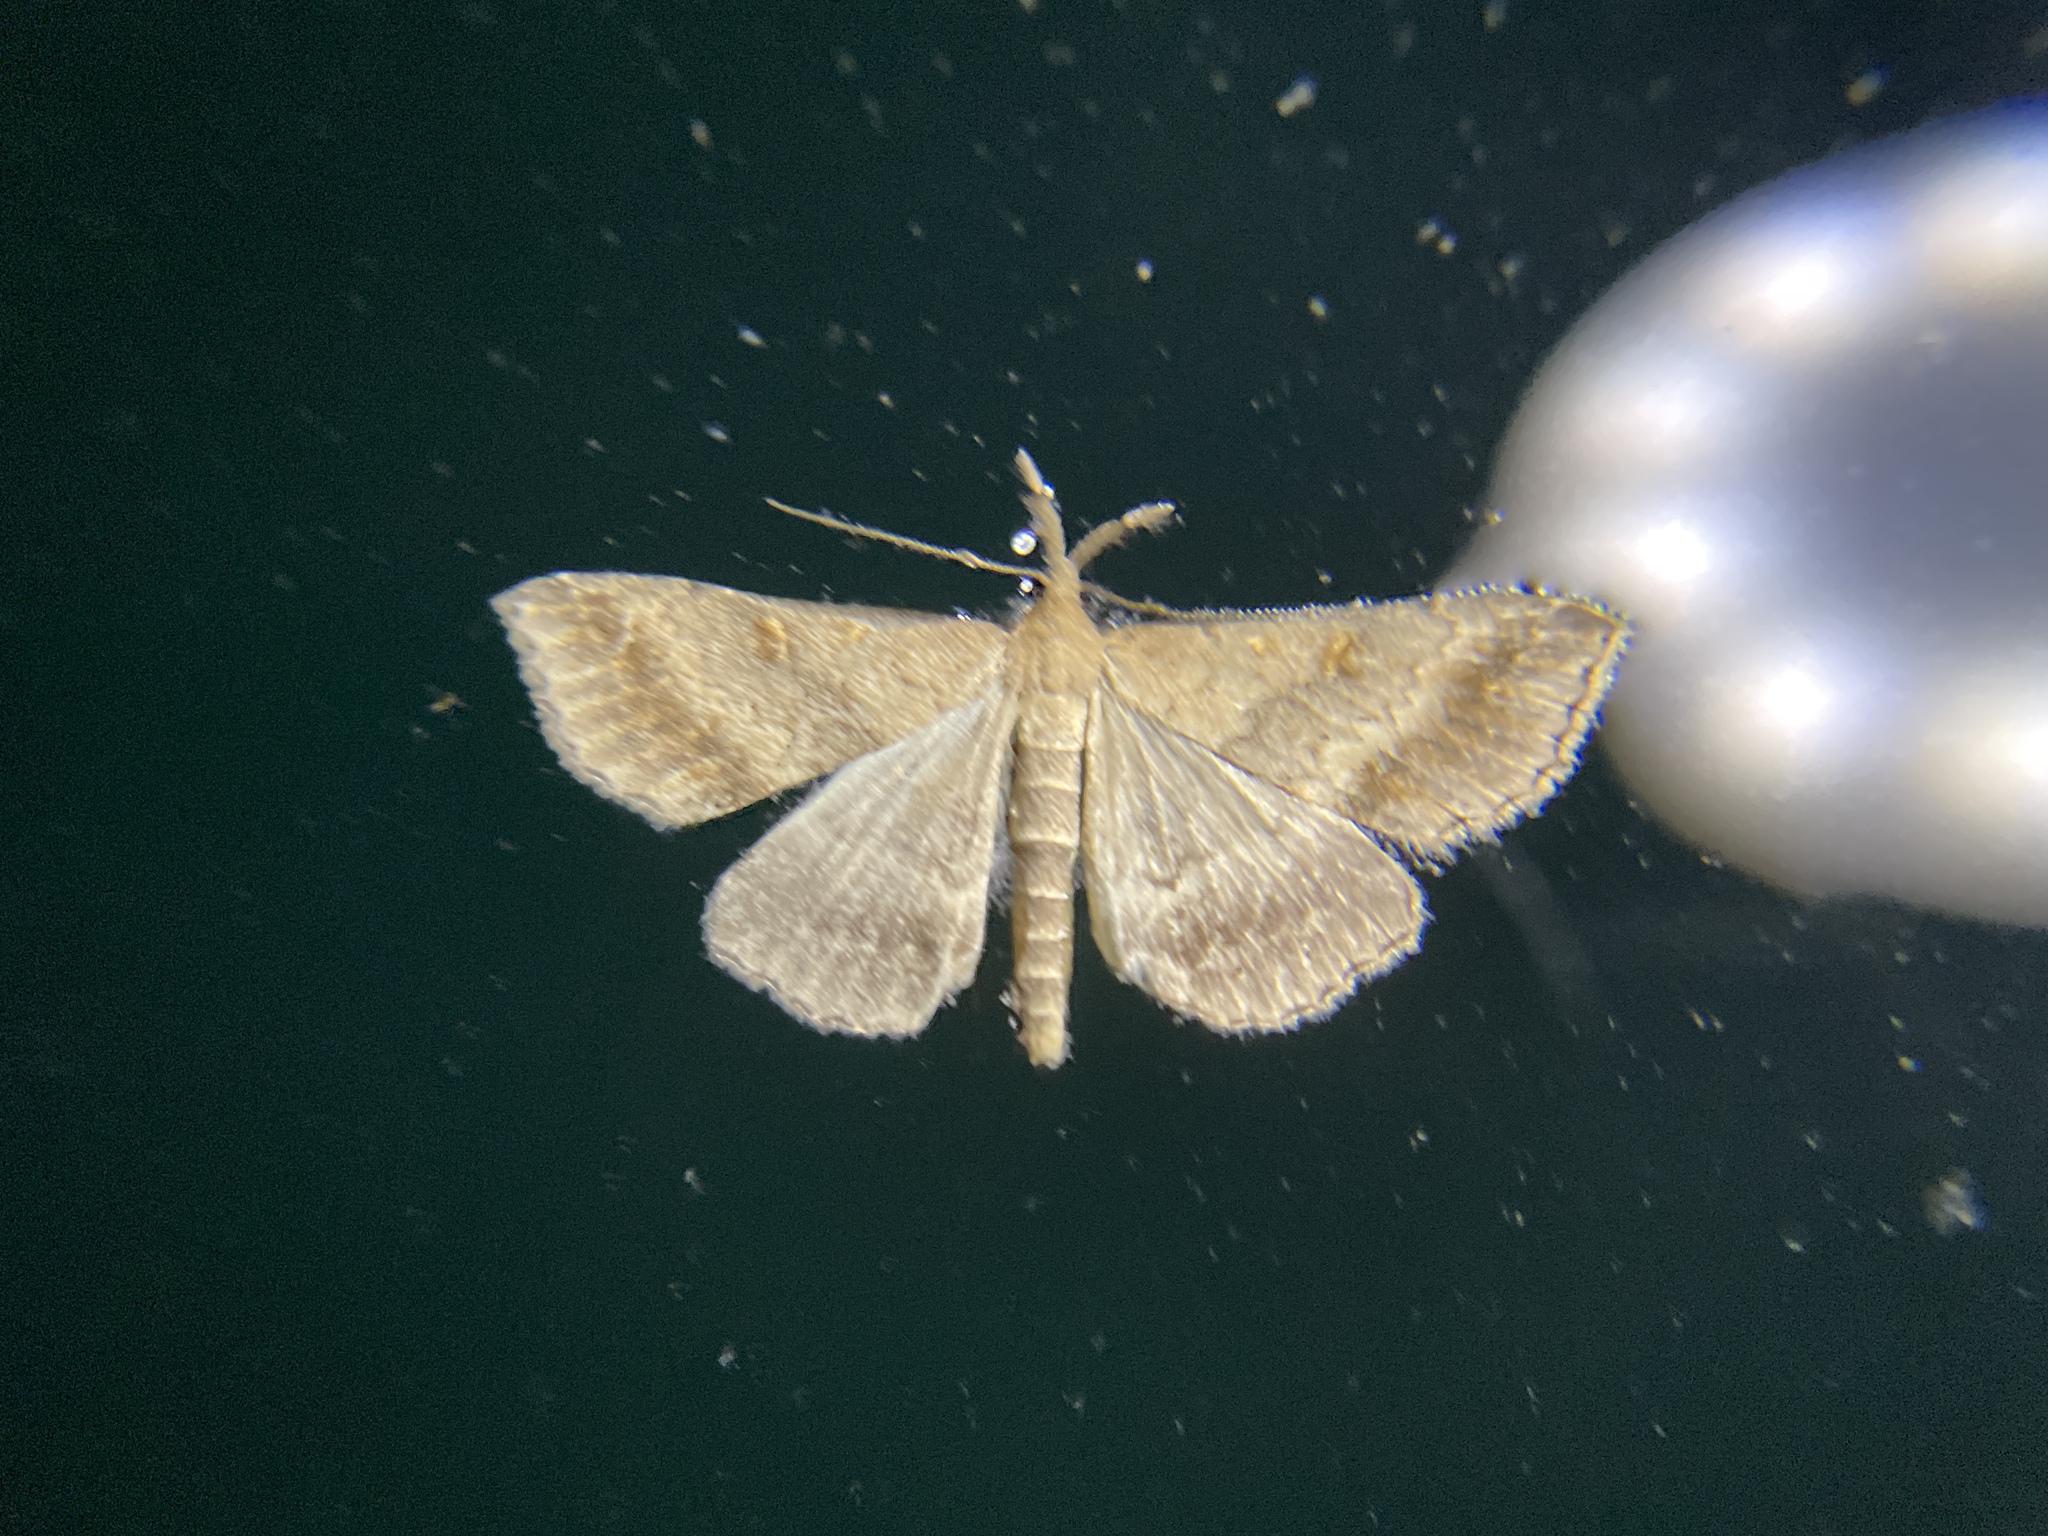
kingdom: Animalia
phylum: Arthropoda
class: Insecta
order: Lepidoptera
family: Erebidae
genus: Tetanolita
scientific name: Tetanolita palligera
